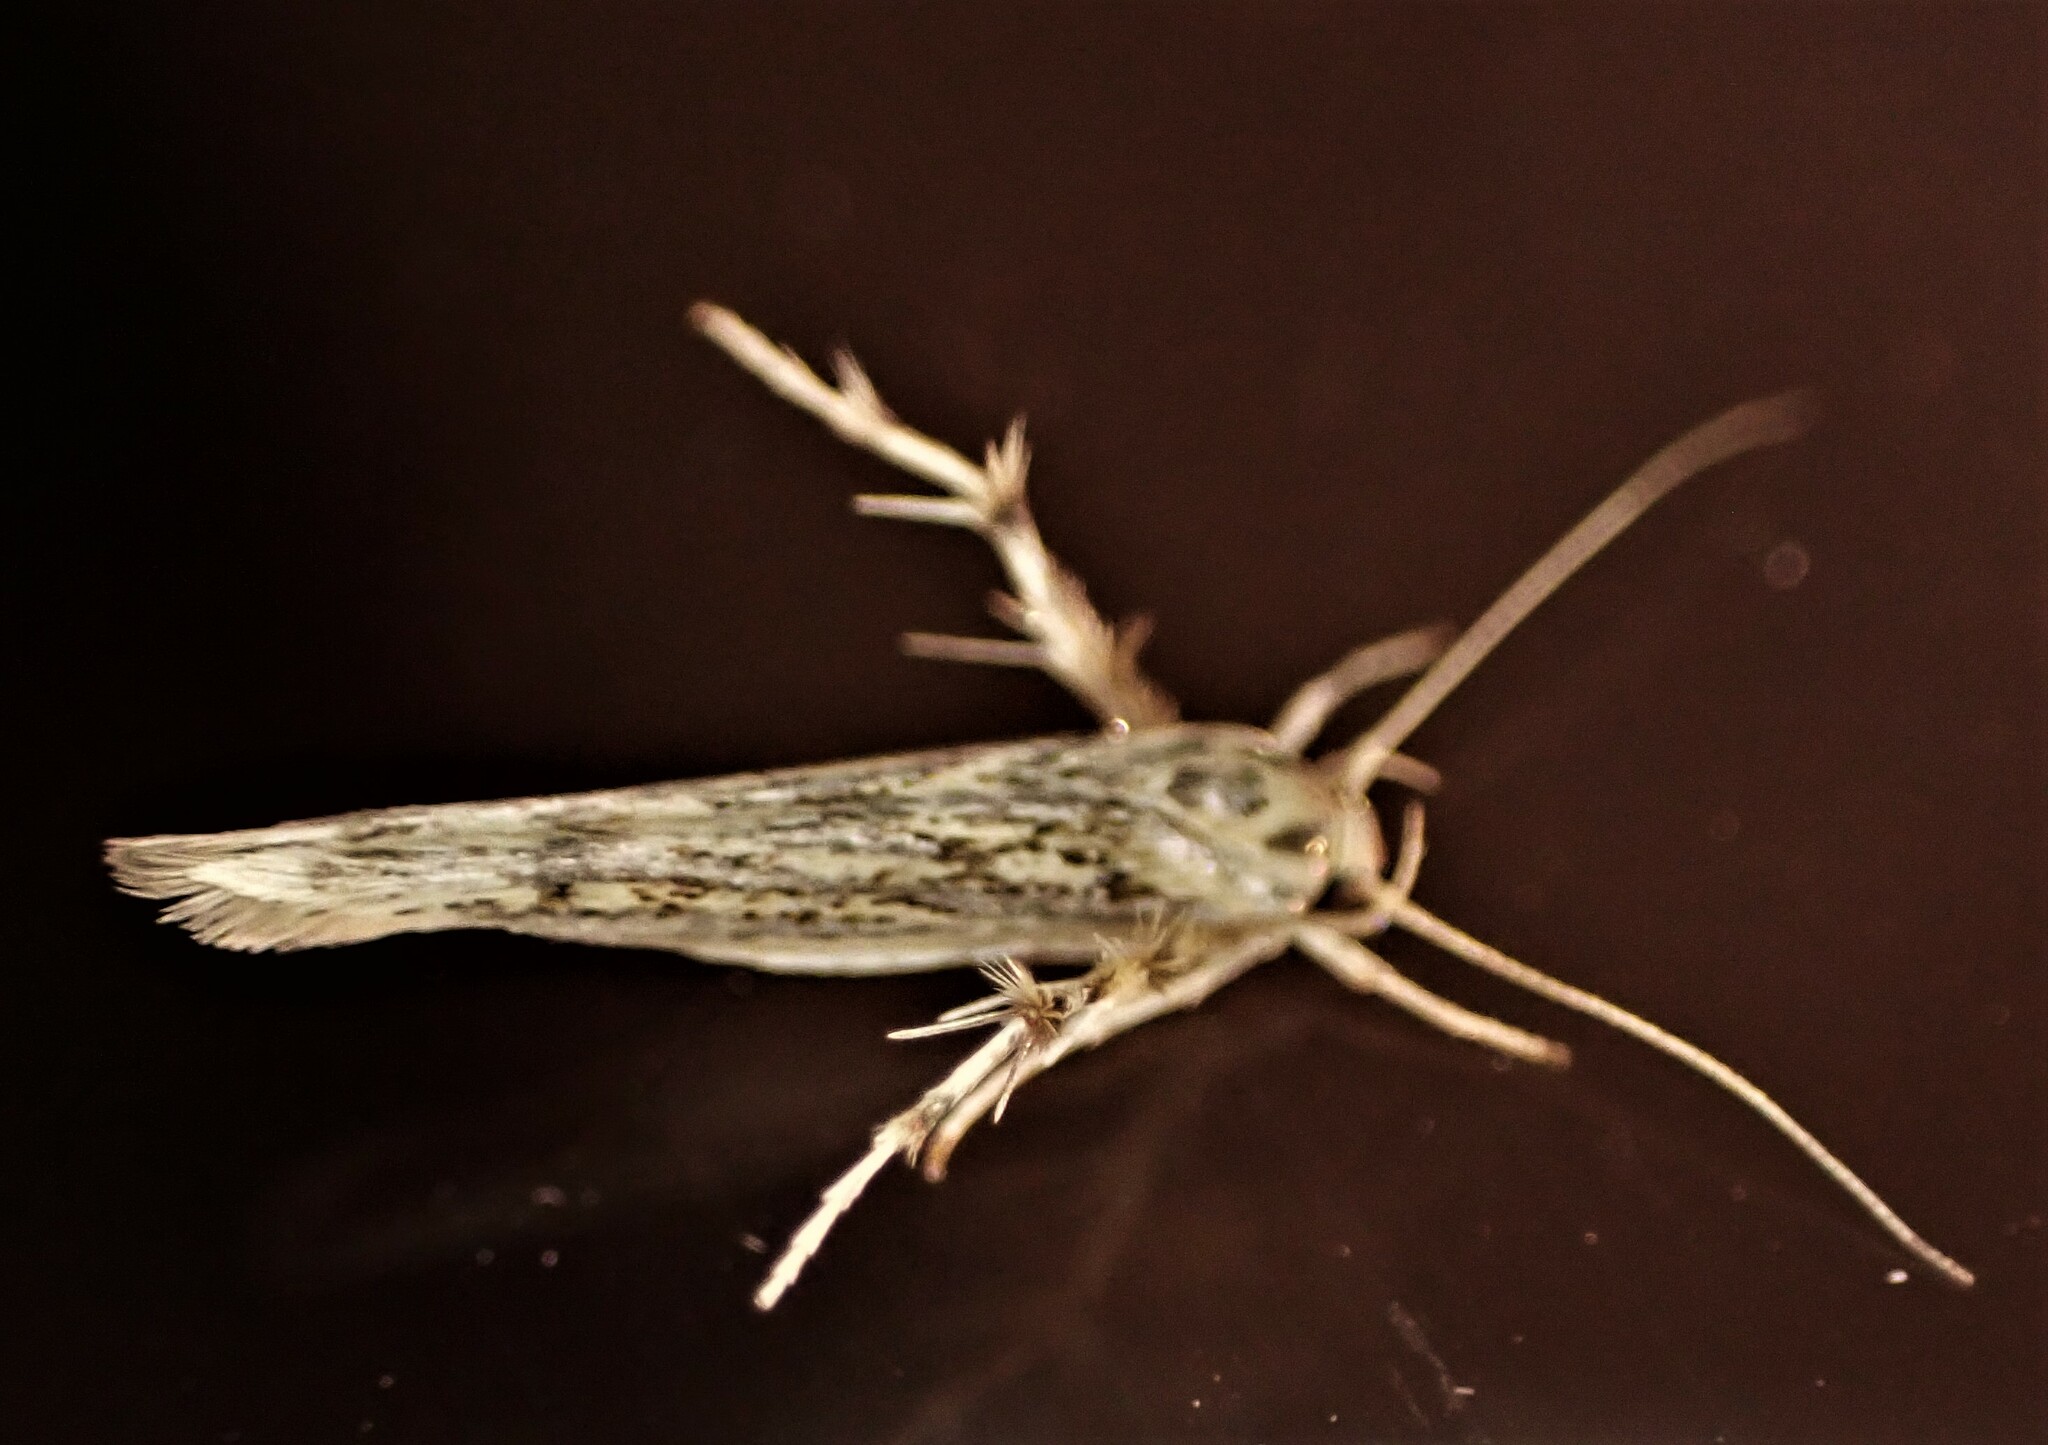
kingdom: Animalia
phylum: Arthropoda
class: Insecta
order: Lepidoptera
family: Stathmopodidae
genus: Stathmopoda
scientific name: Stathmopoda plumbiflua
